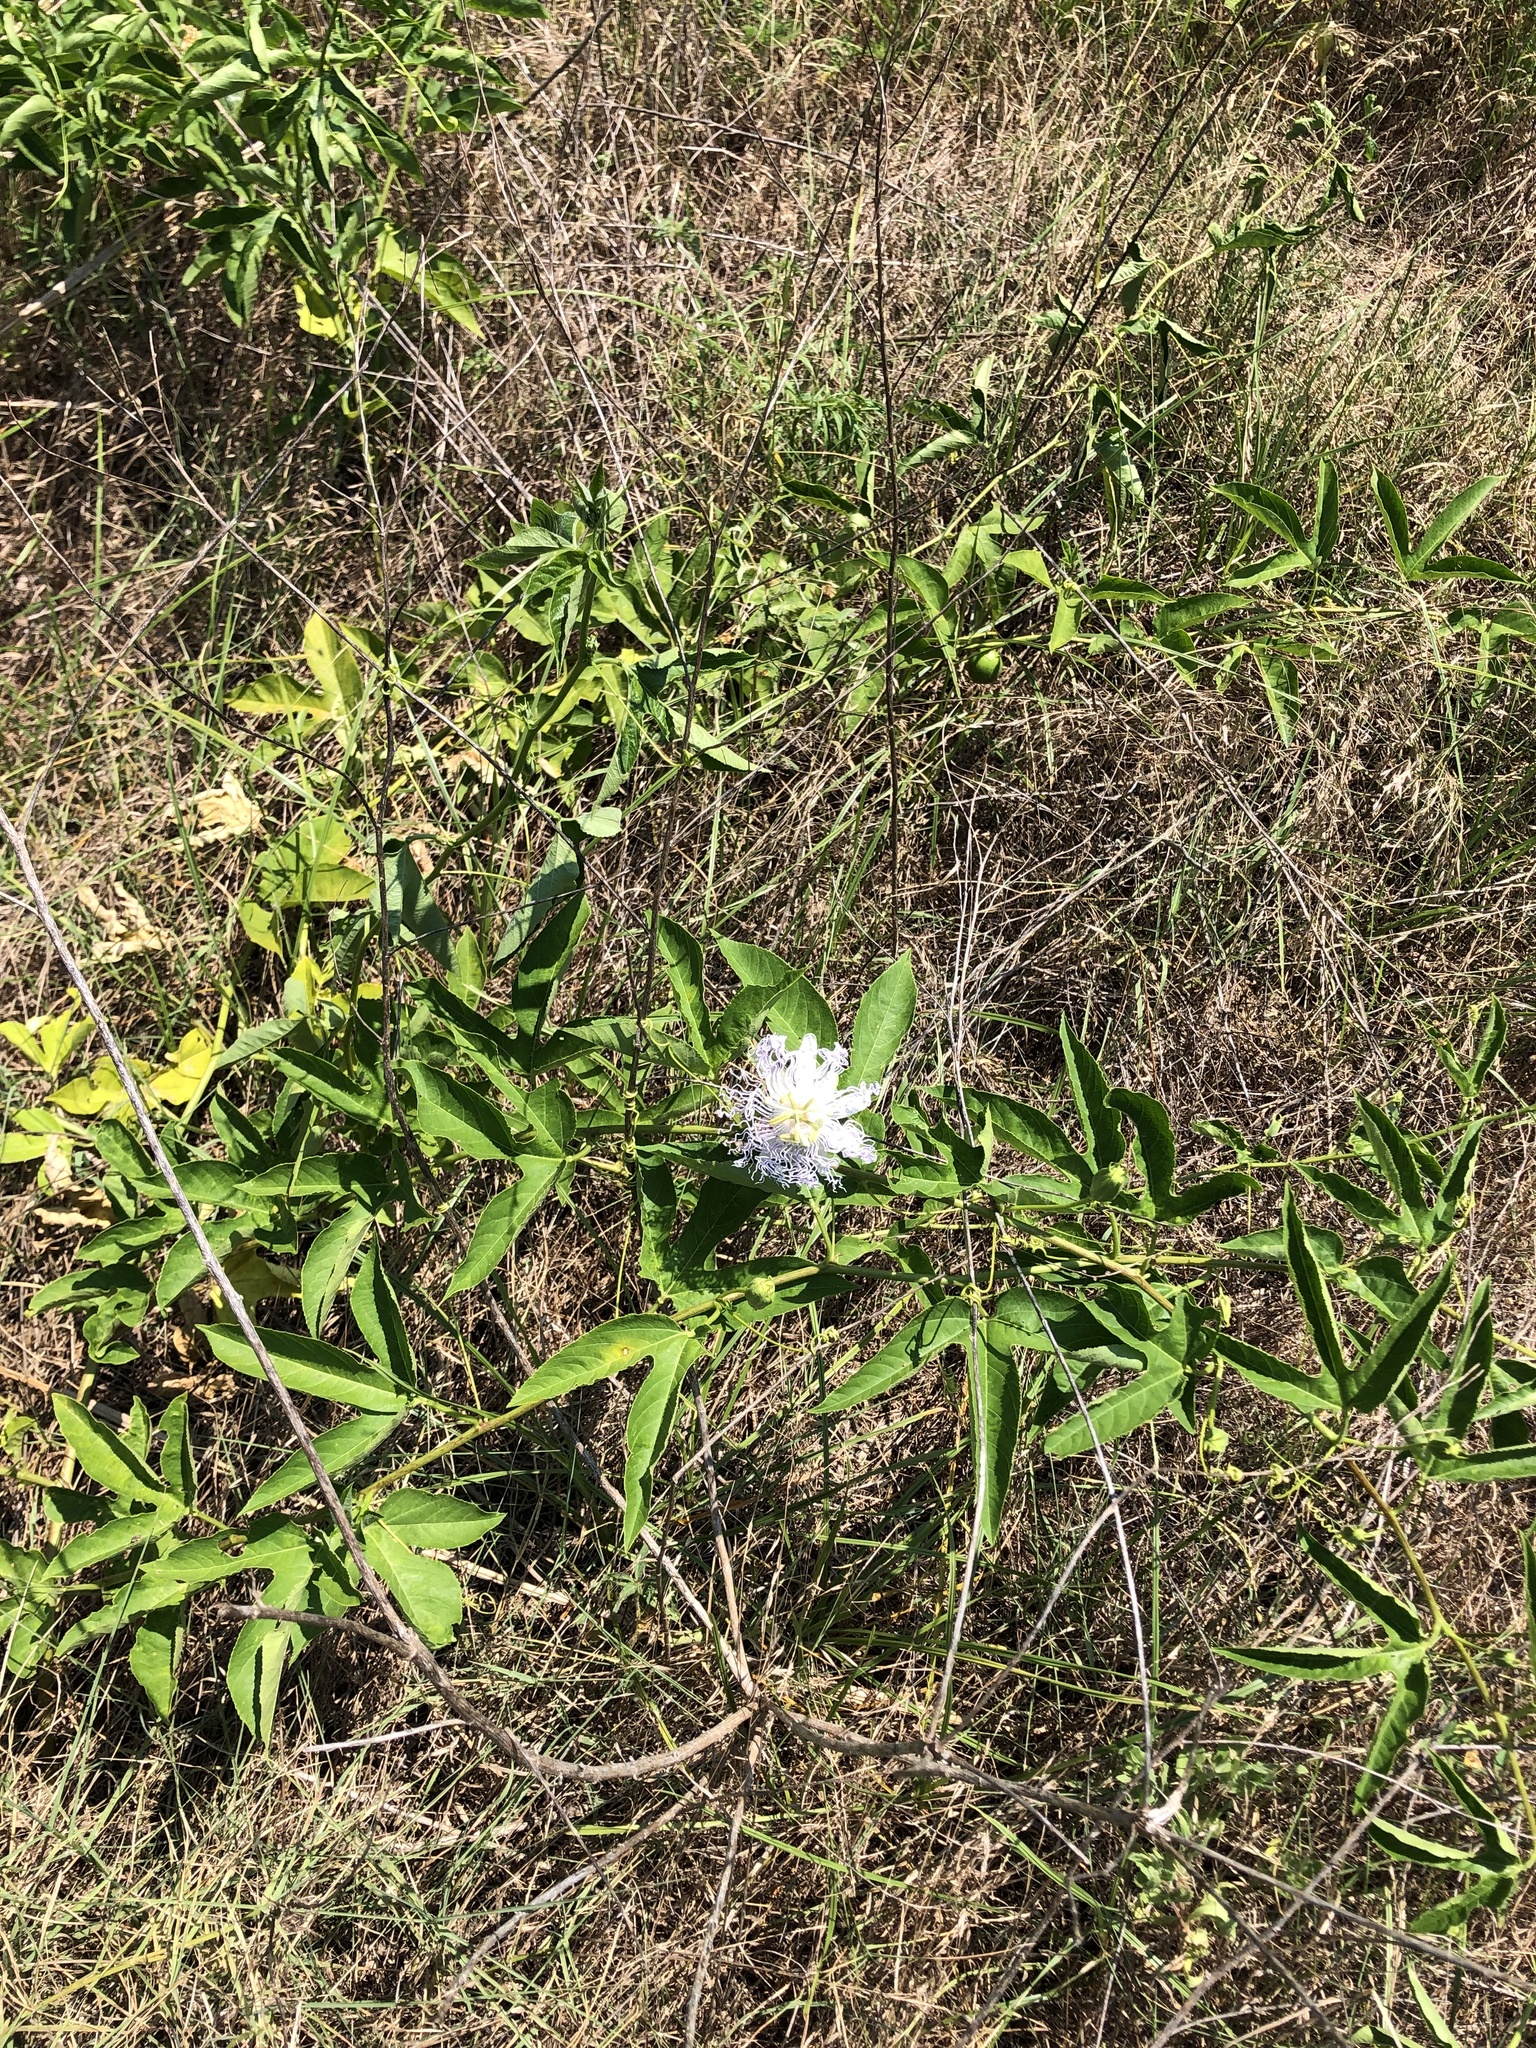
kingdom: Plantae
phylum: Tracheophyta
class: Magnoliopsida
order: Malpighiales
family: Passifloraceae
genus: Passiflora
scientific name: Passiflora incarnata
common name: Apricot-vine
